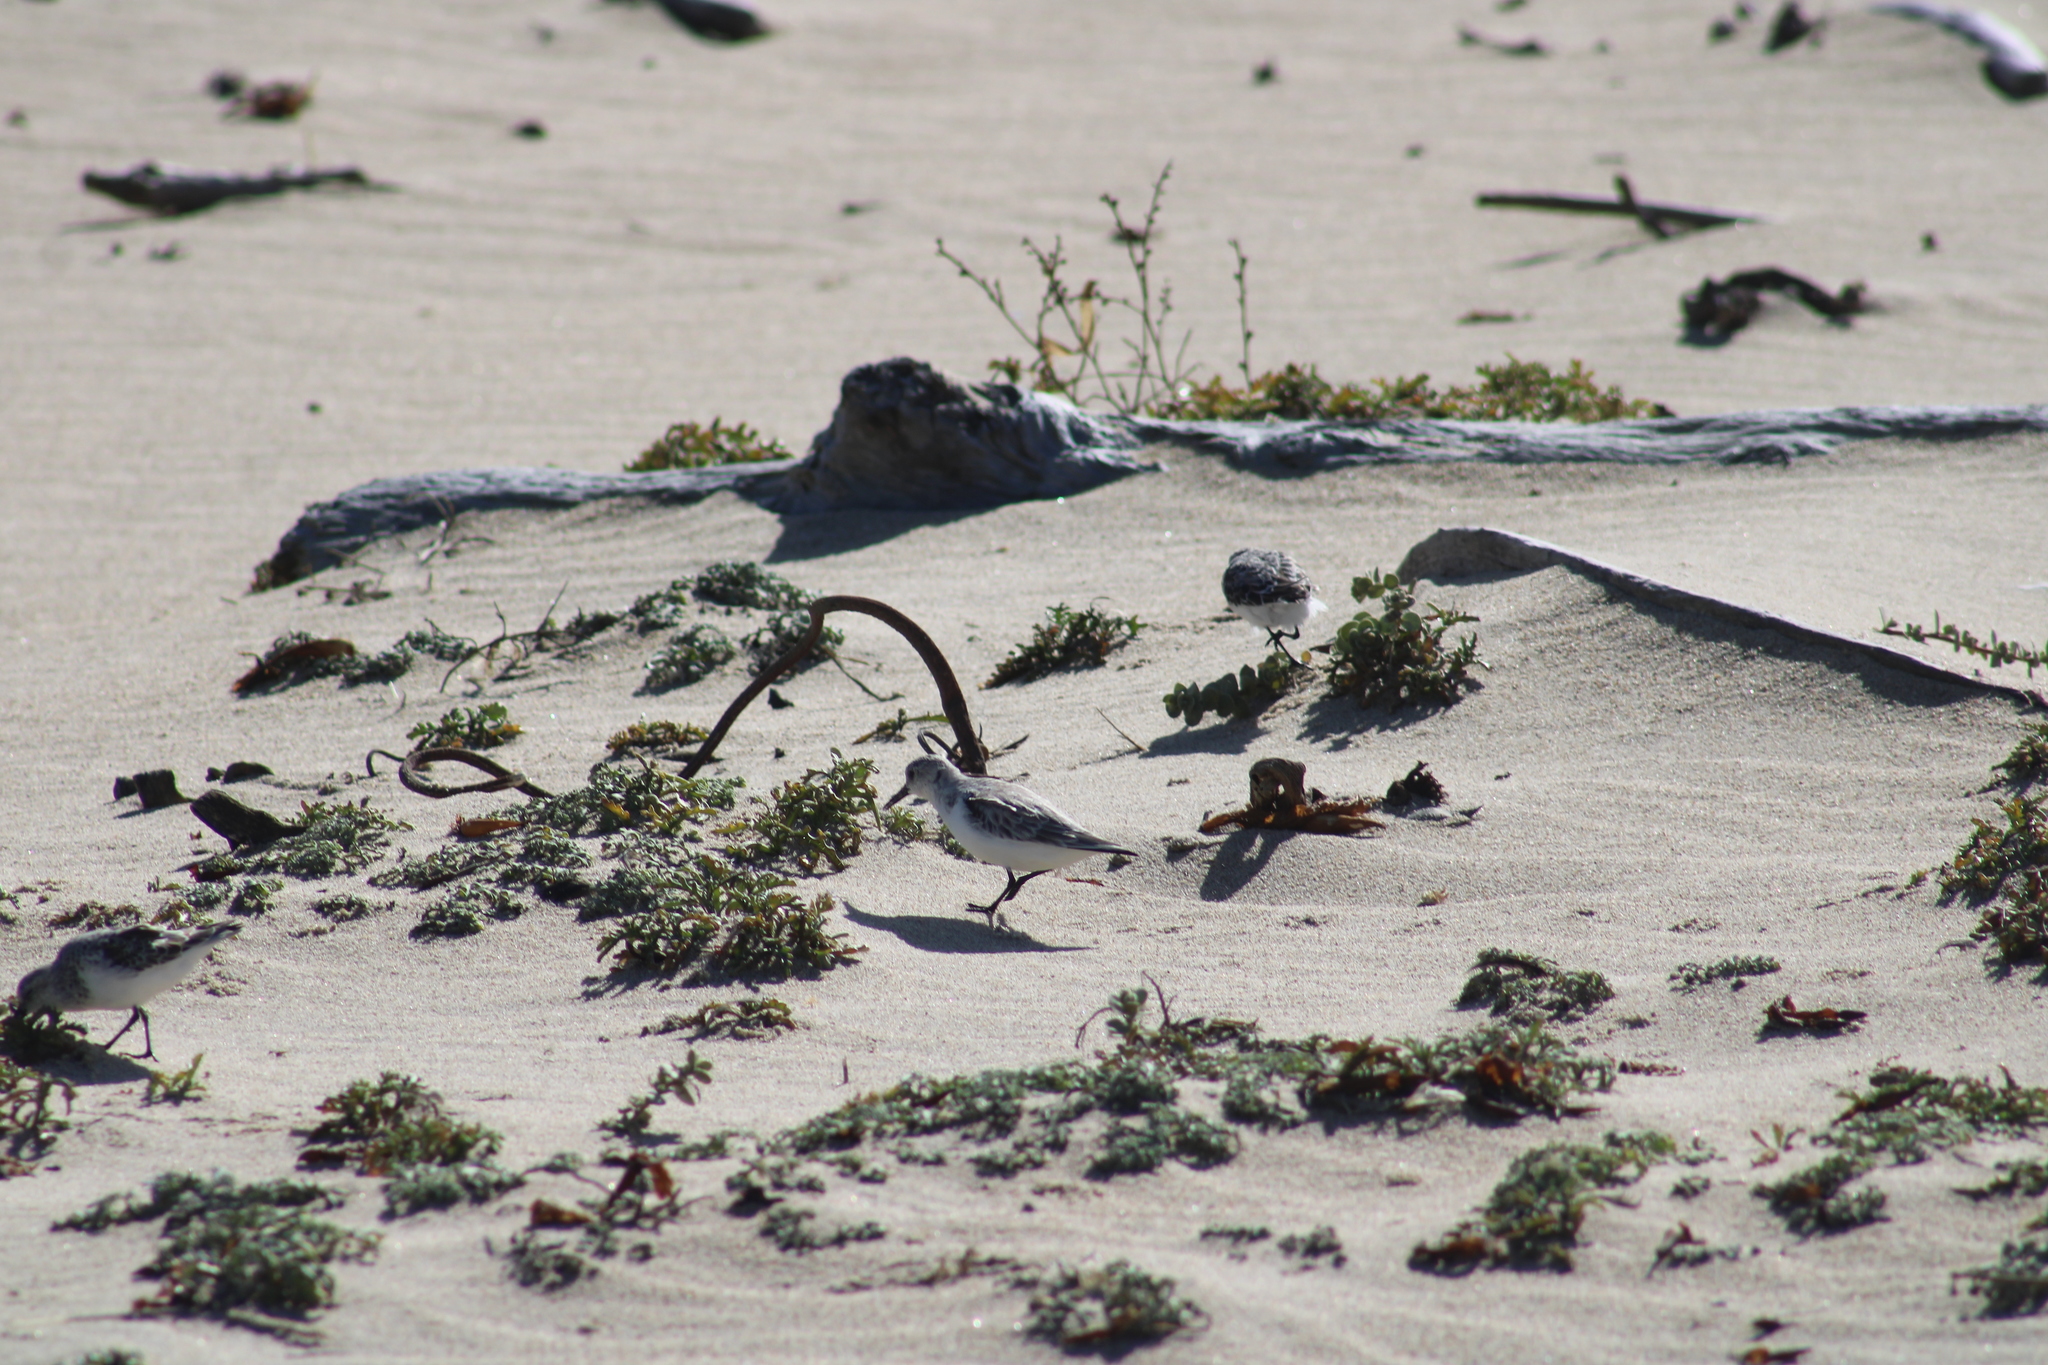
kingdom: Animalia
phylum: Chordata
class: Aves
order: Charadriiformes
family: Scolopacidae
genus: Calidris
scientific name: Calidris alba
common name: Sanderling
